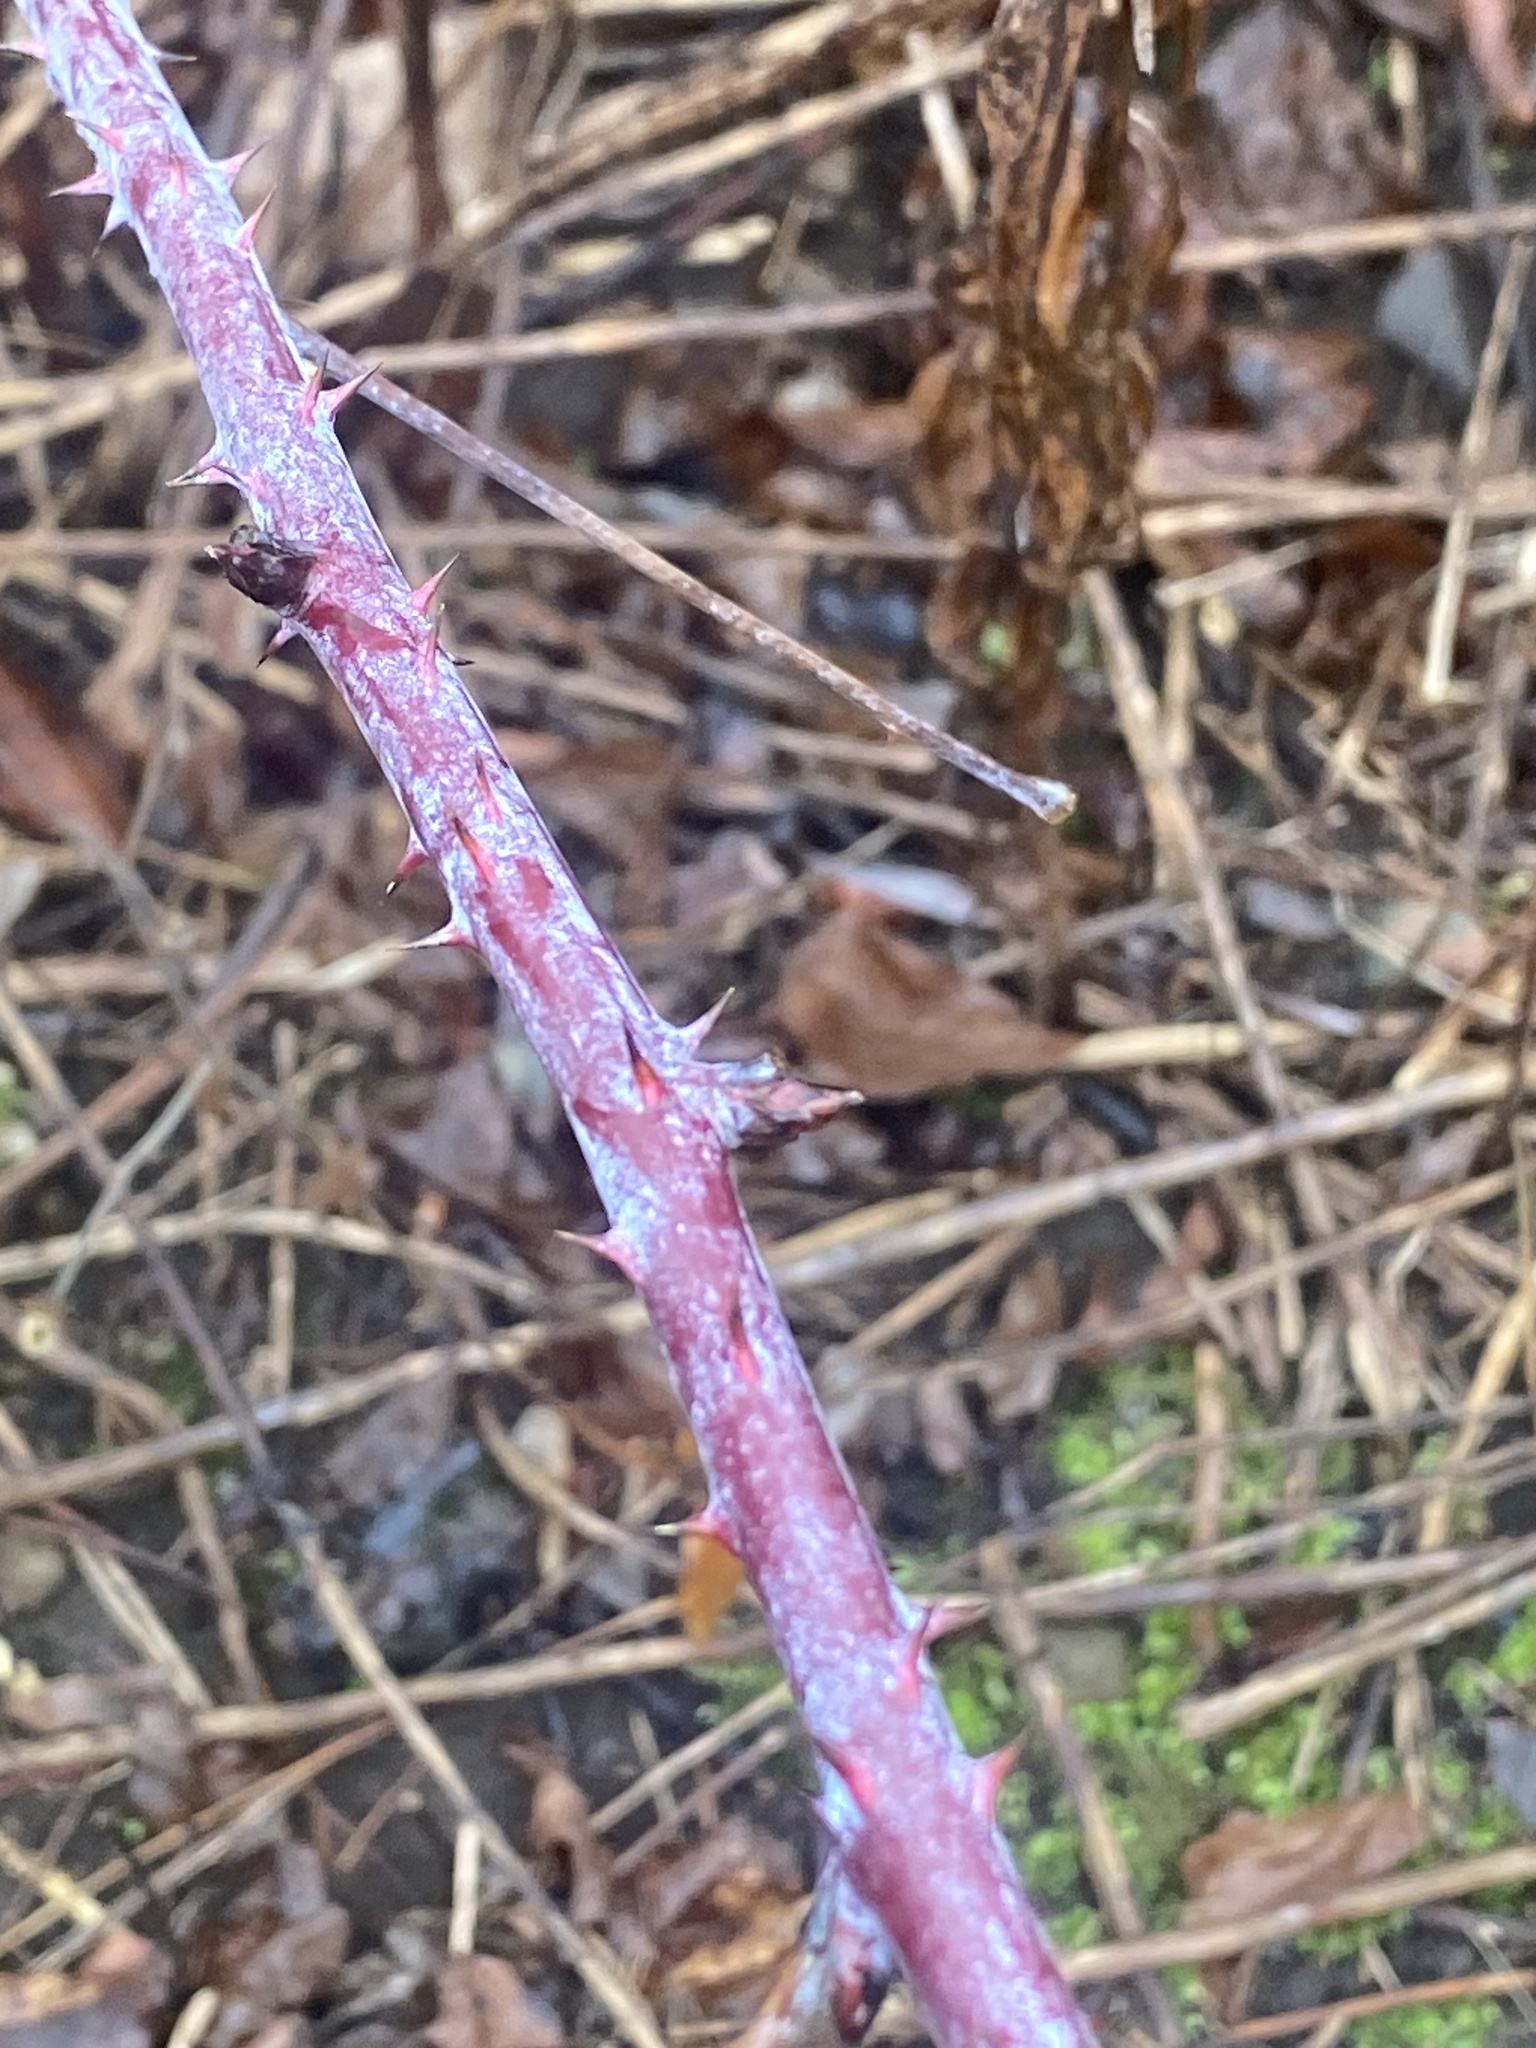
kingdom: Plantae
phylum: Tracheophyta
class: Magnoliopsida
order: Rosales
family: Rosaceae
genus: Rubus
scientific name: Rubus occidentalis
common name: Black raspberry
